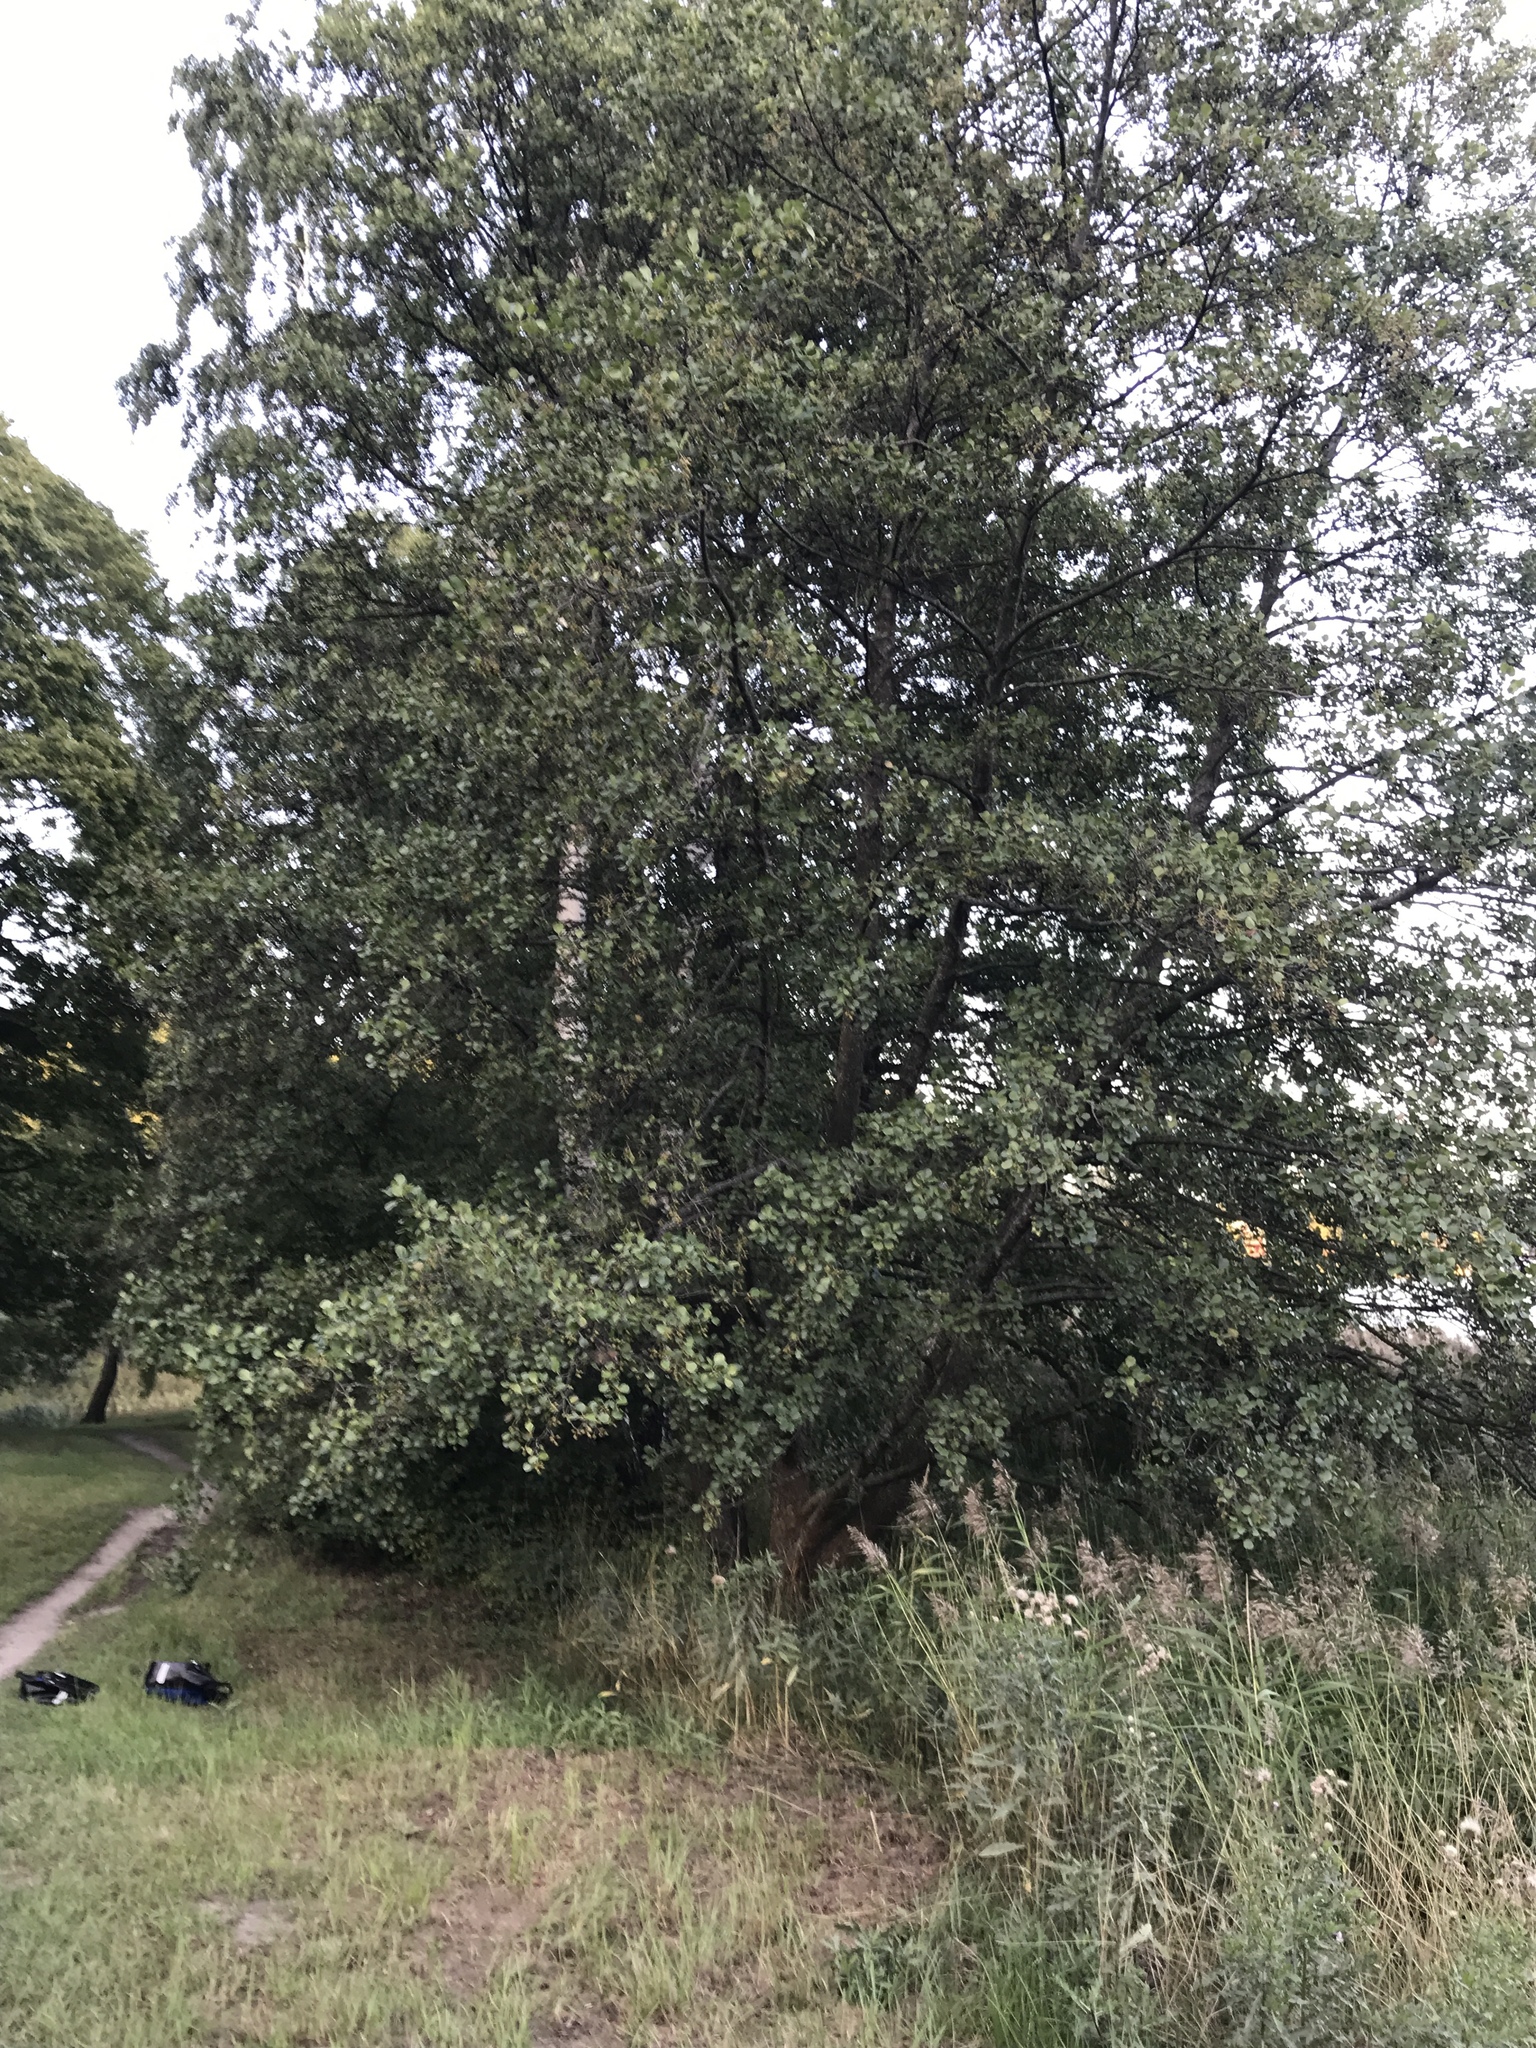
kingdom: Plantae
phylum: Tracheophyta
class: Magnoliopsida
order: Fagales
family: Betulaceae
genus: Alnus
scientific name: Alnus glutinosa
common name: Black alder
